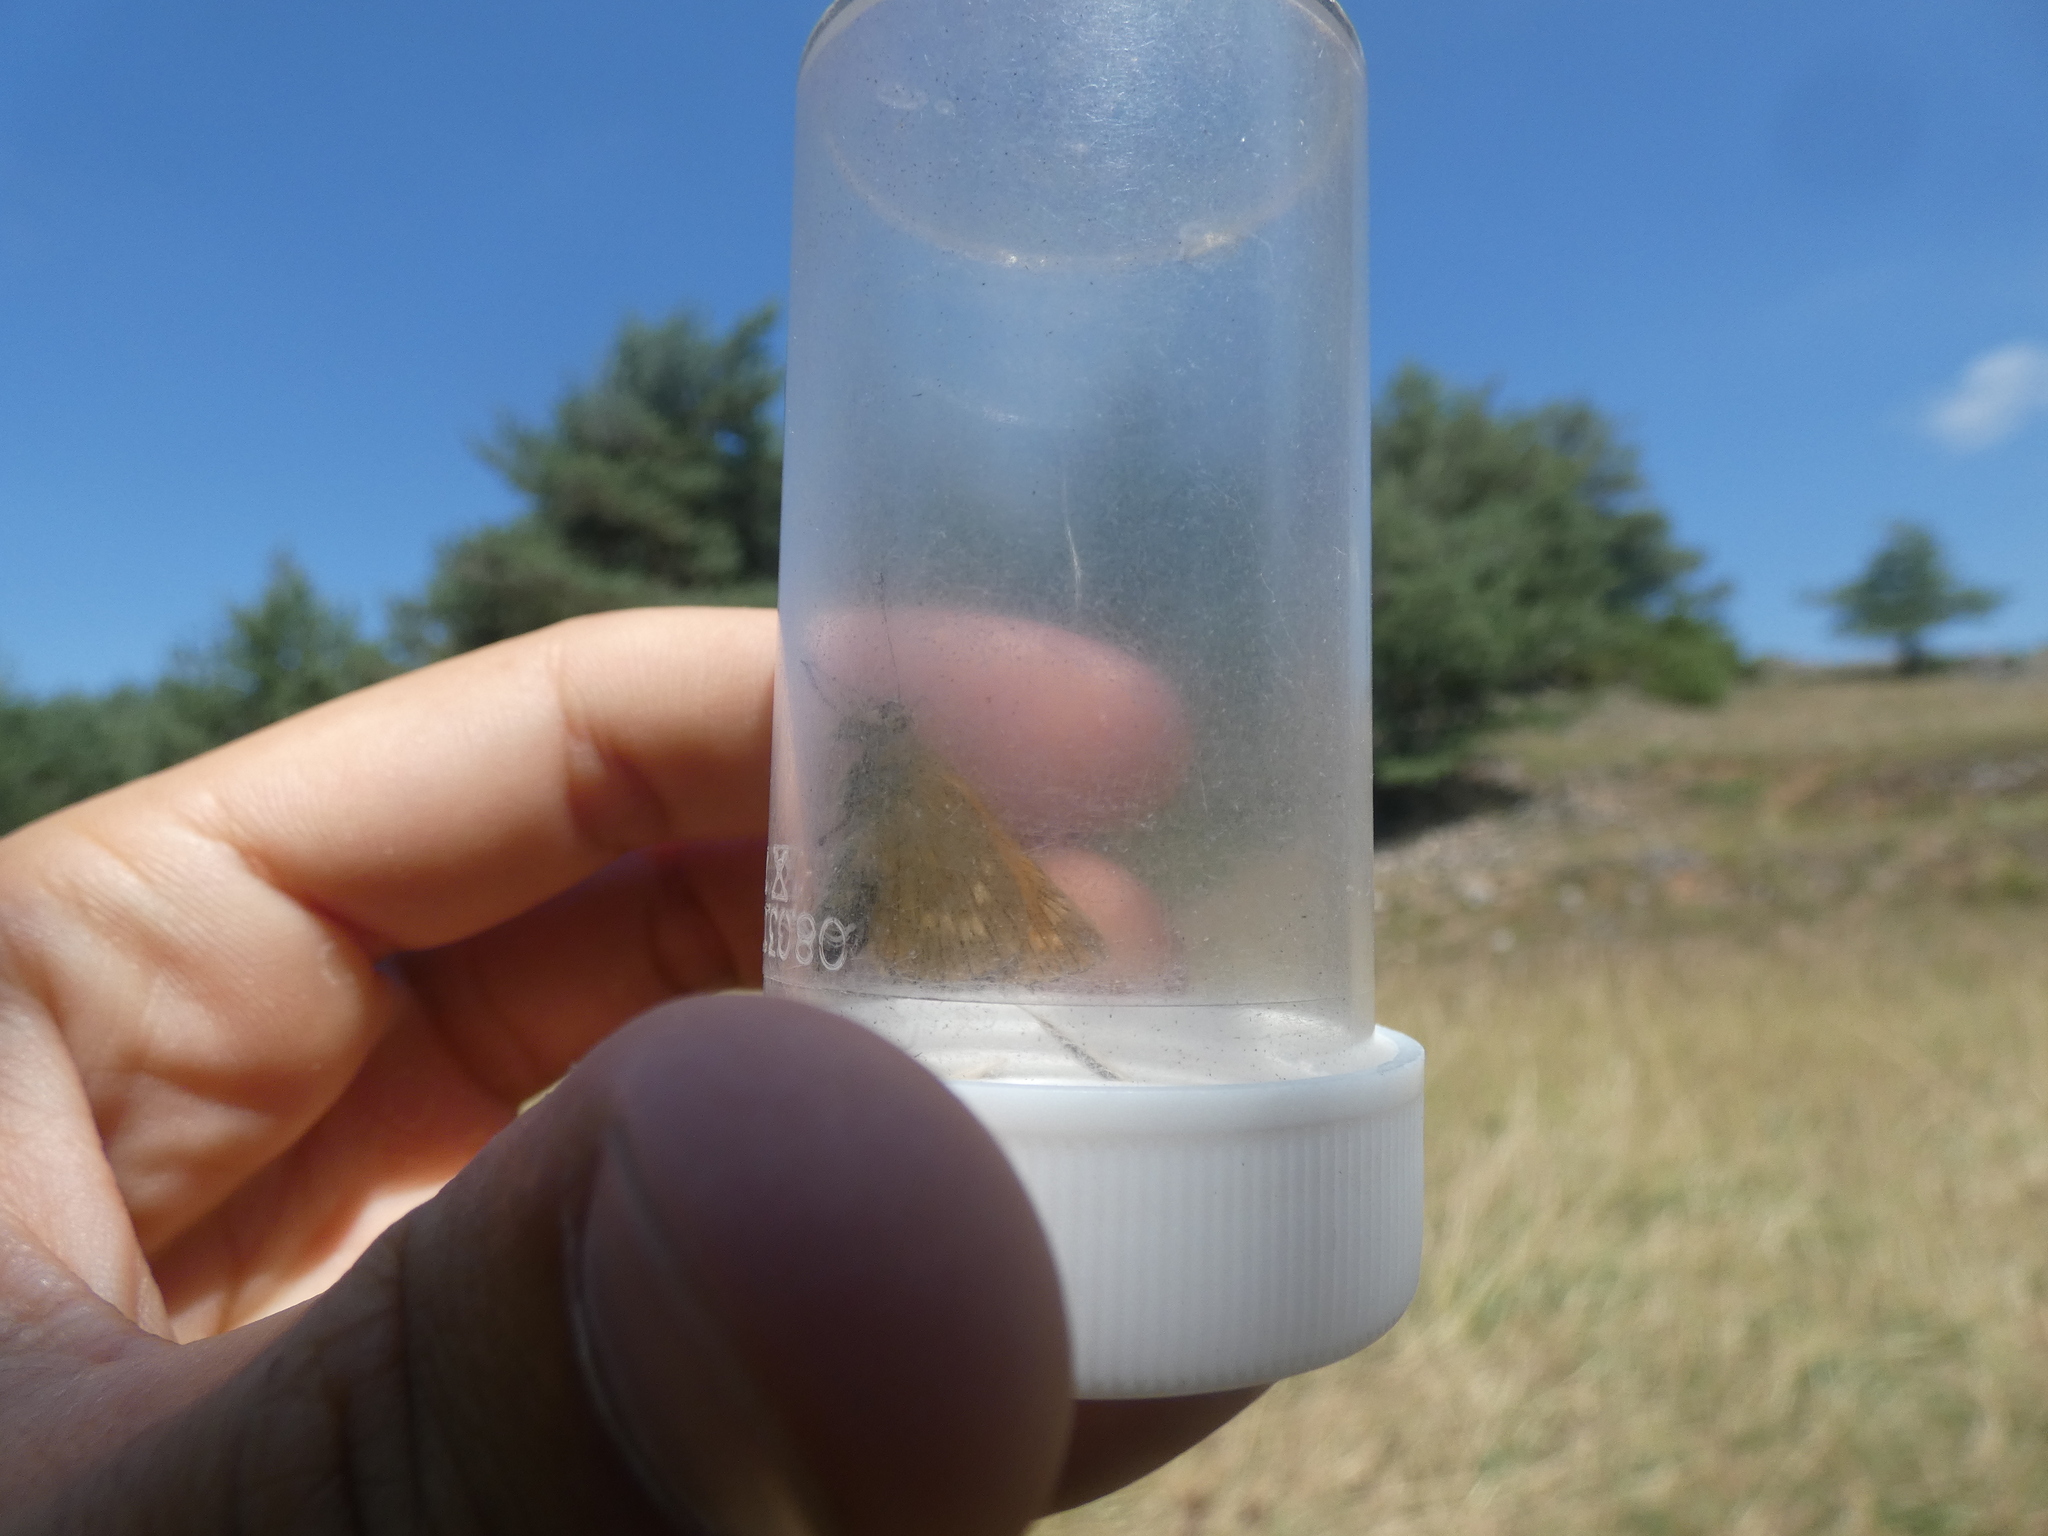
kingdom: Animalia
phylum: Arthropoda
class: Insecta
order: Lepidoptera
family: Hesperiidae
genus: Ochlodes
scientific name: Ochlodes venata
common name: Large skipper
